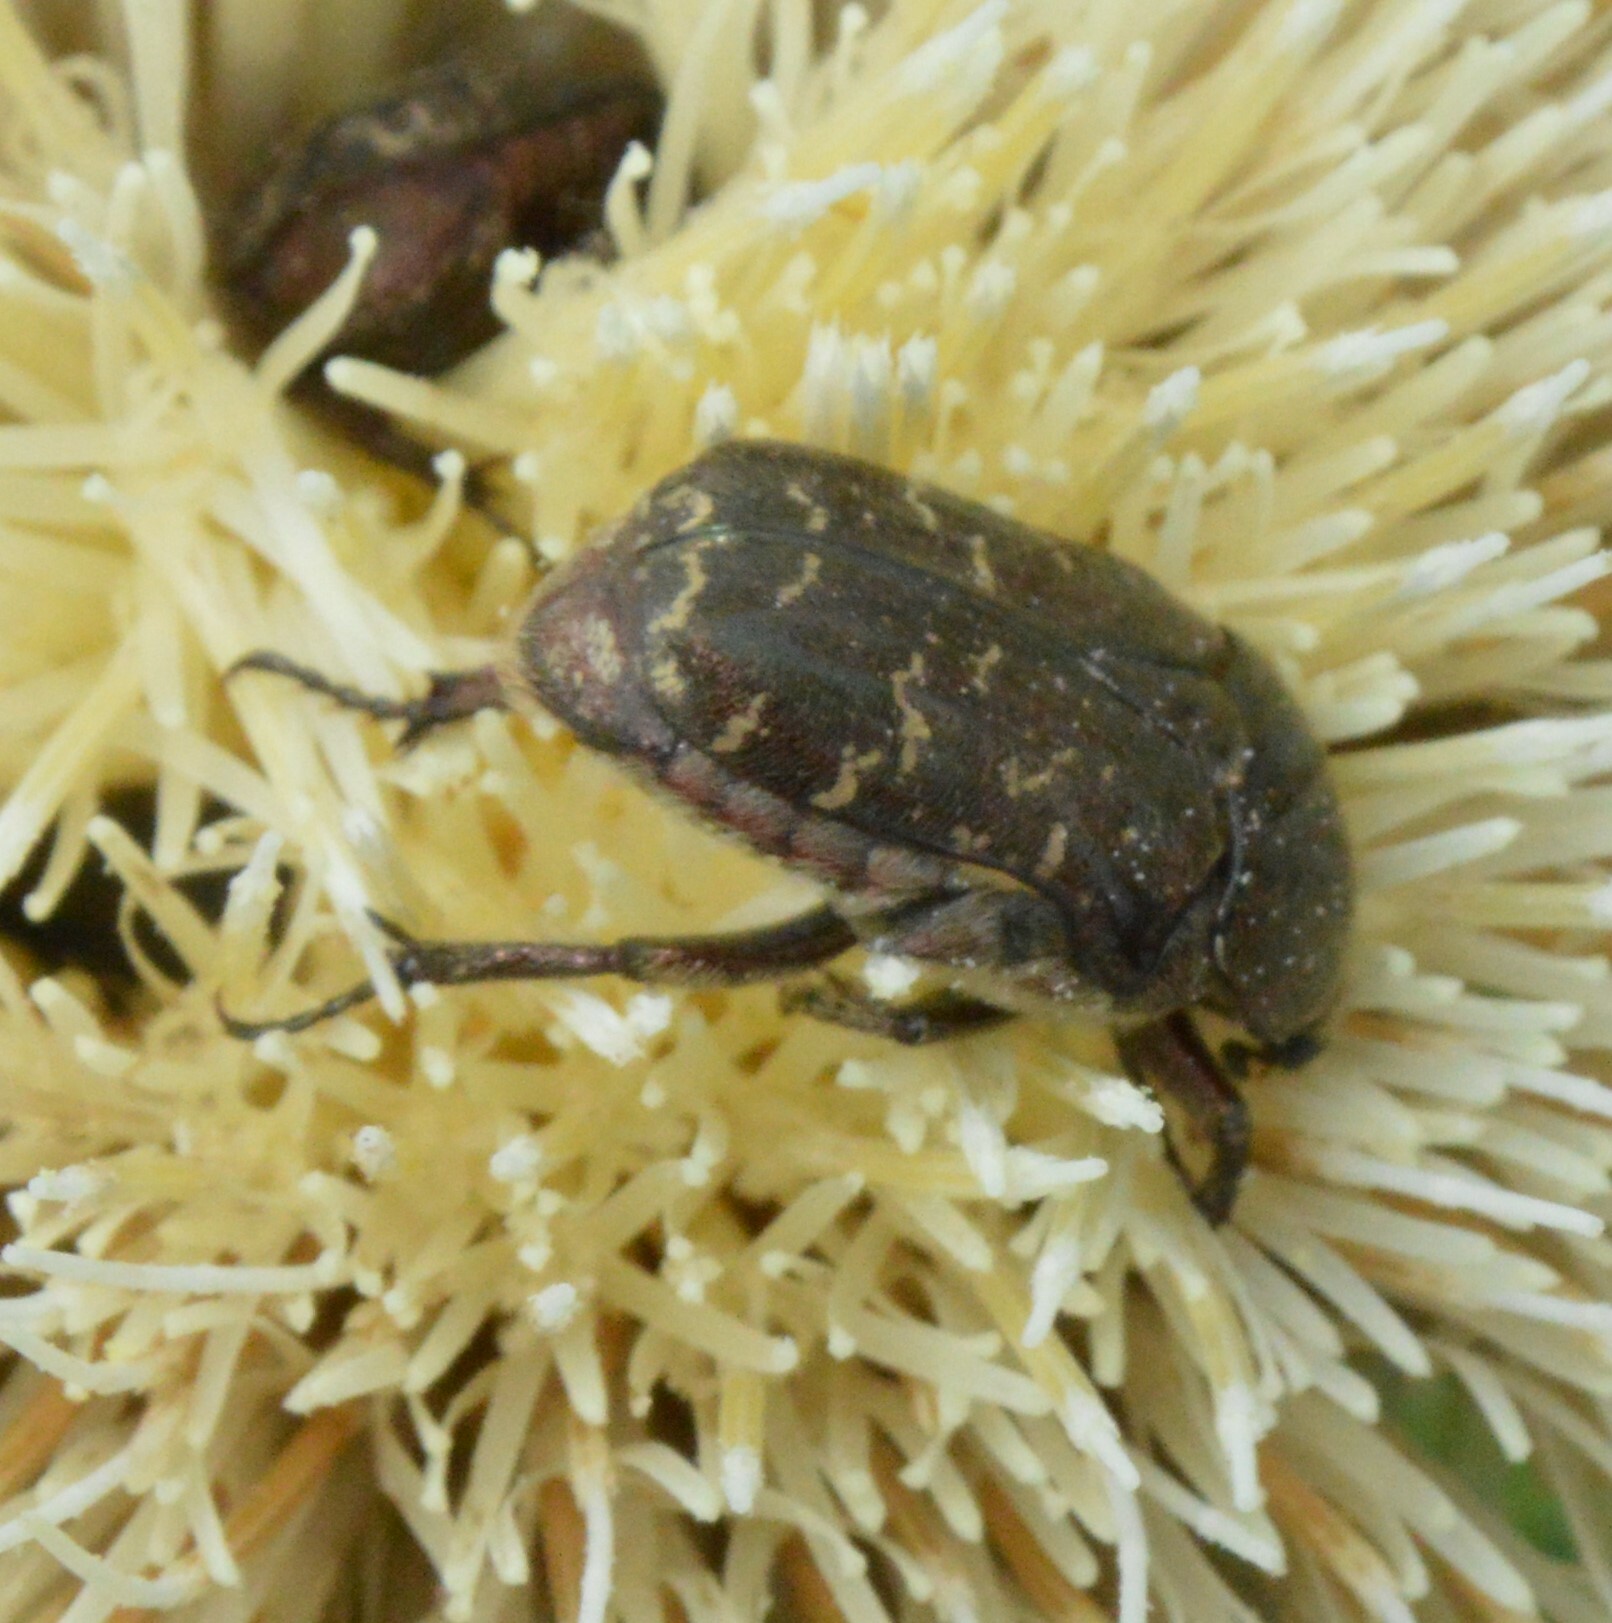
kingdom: Animalia
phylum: Arthropoda
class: Insecta
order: Coleoptera
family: Scarabaeidae
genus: Euphoria
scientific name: Euphoria sepulcralis
